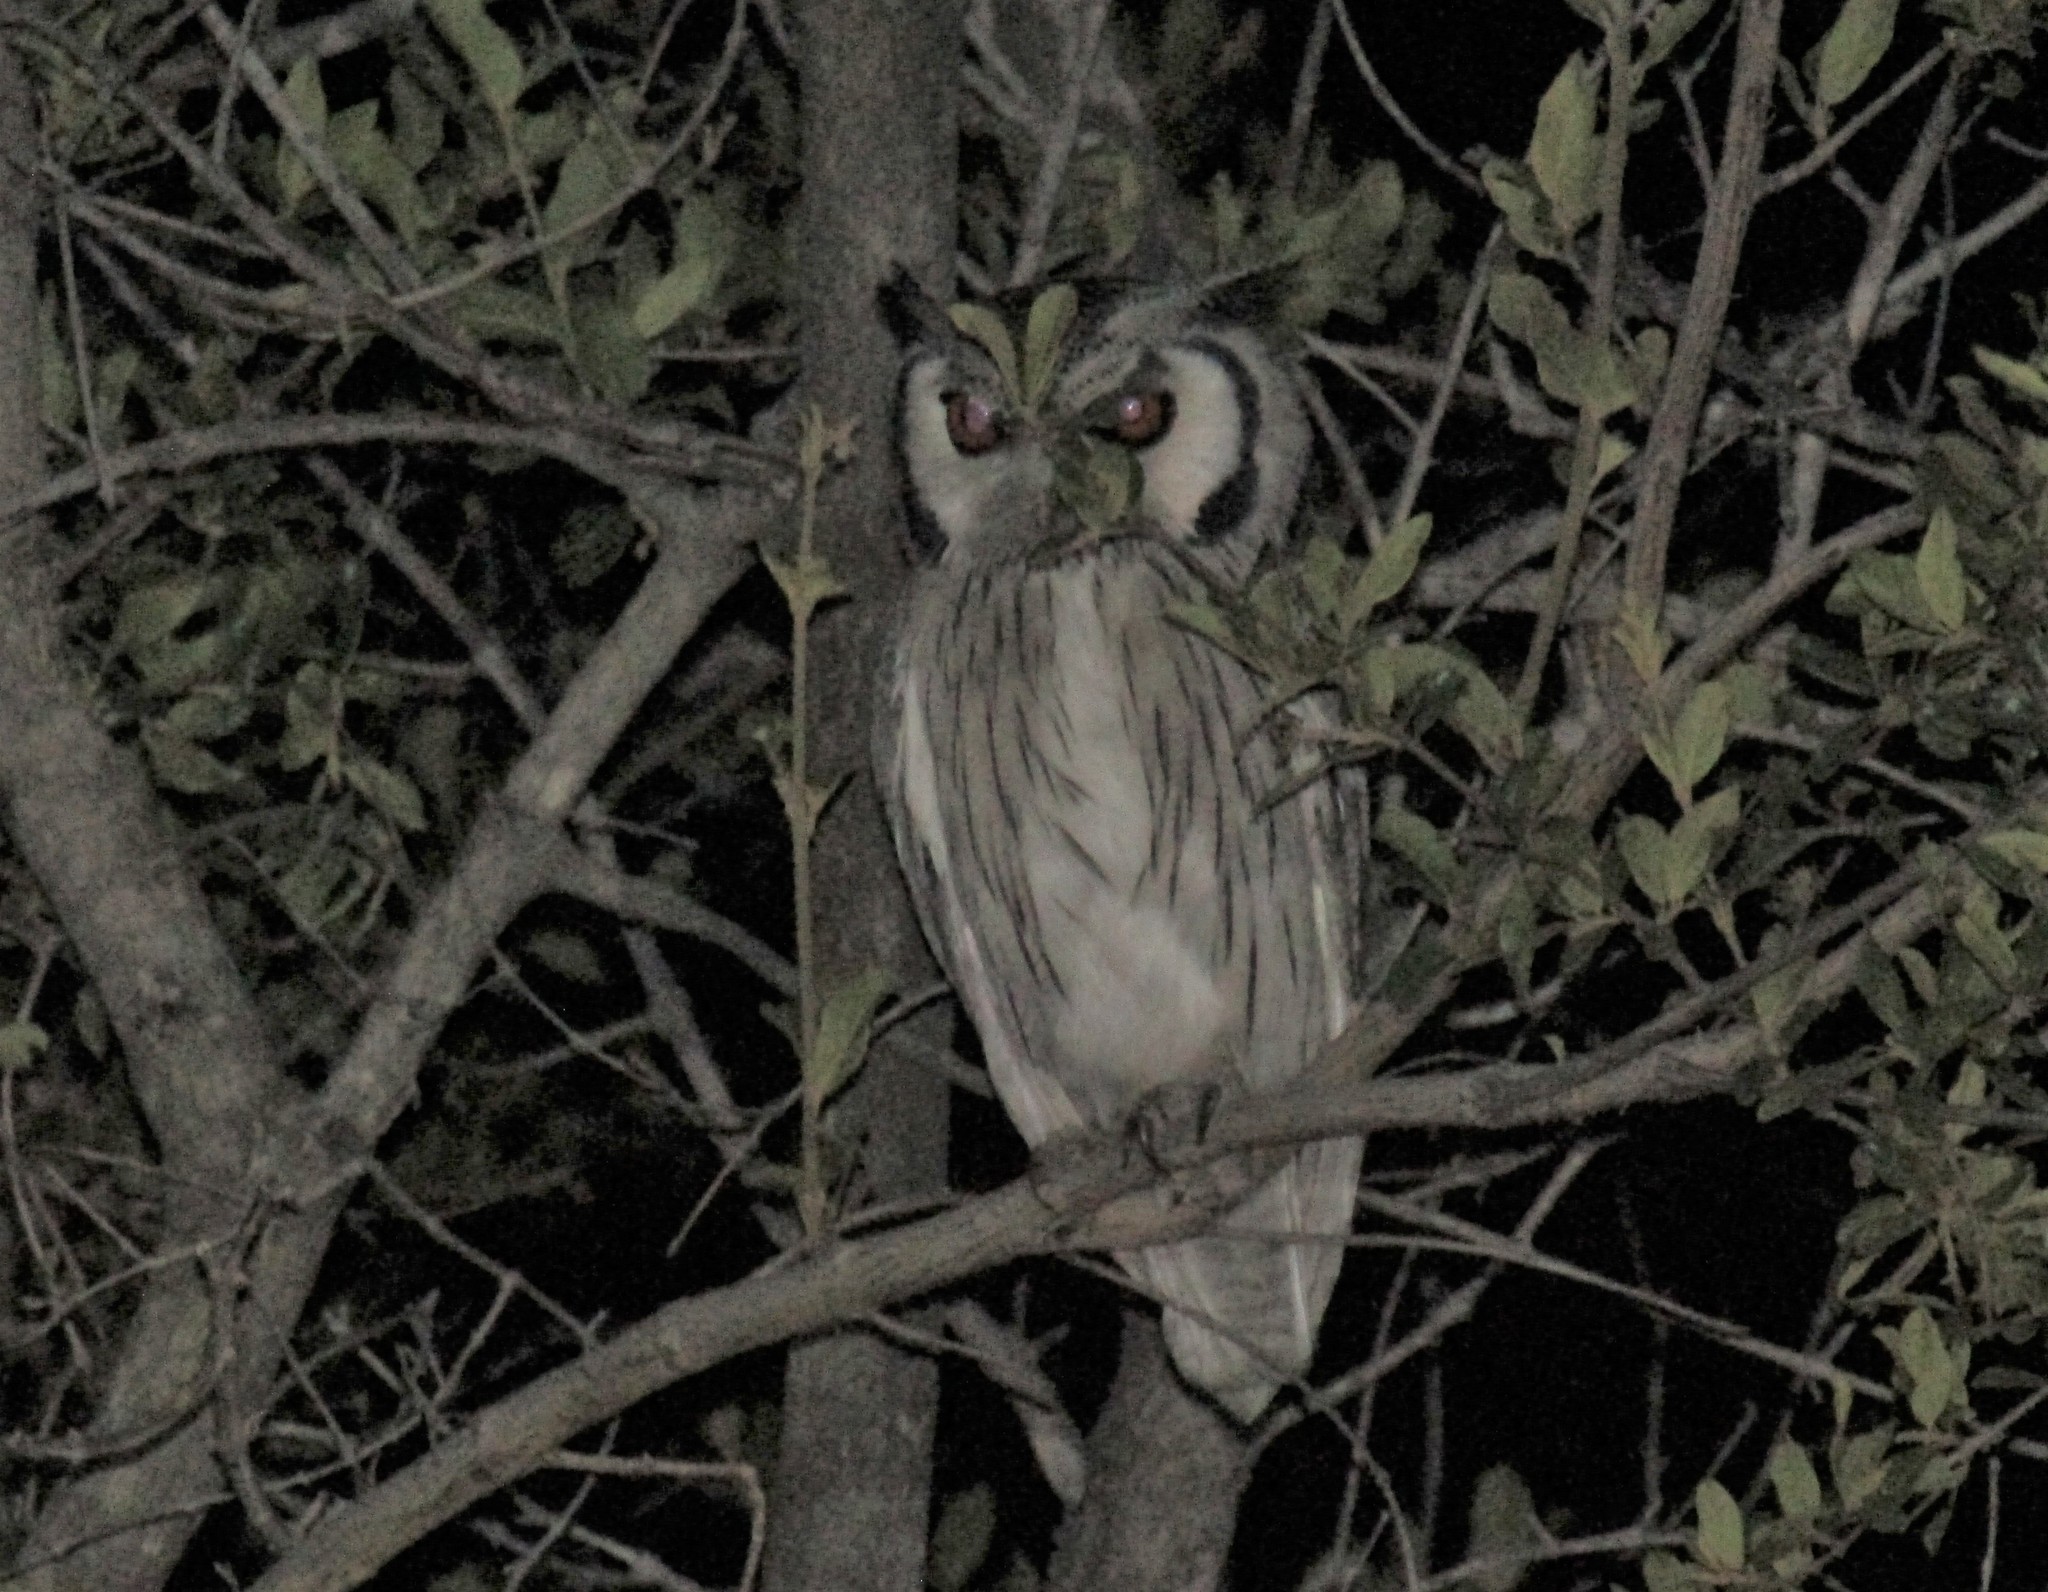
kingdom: Animalia
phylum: Chordata
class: Aves
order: Strigiformes
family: Strigidae
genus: Ptilopsis
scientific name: Ptilopsis granti
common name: Southern white-faced owl
